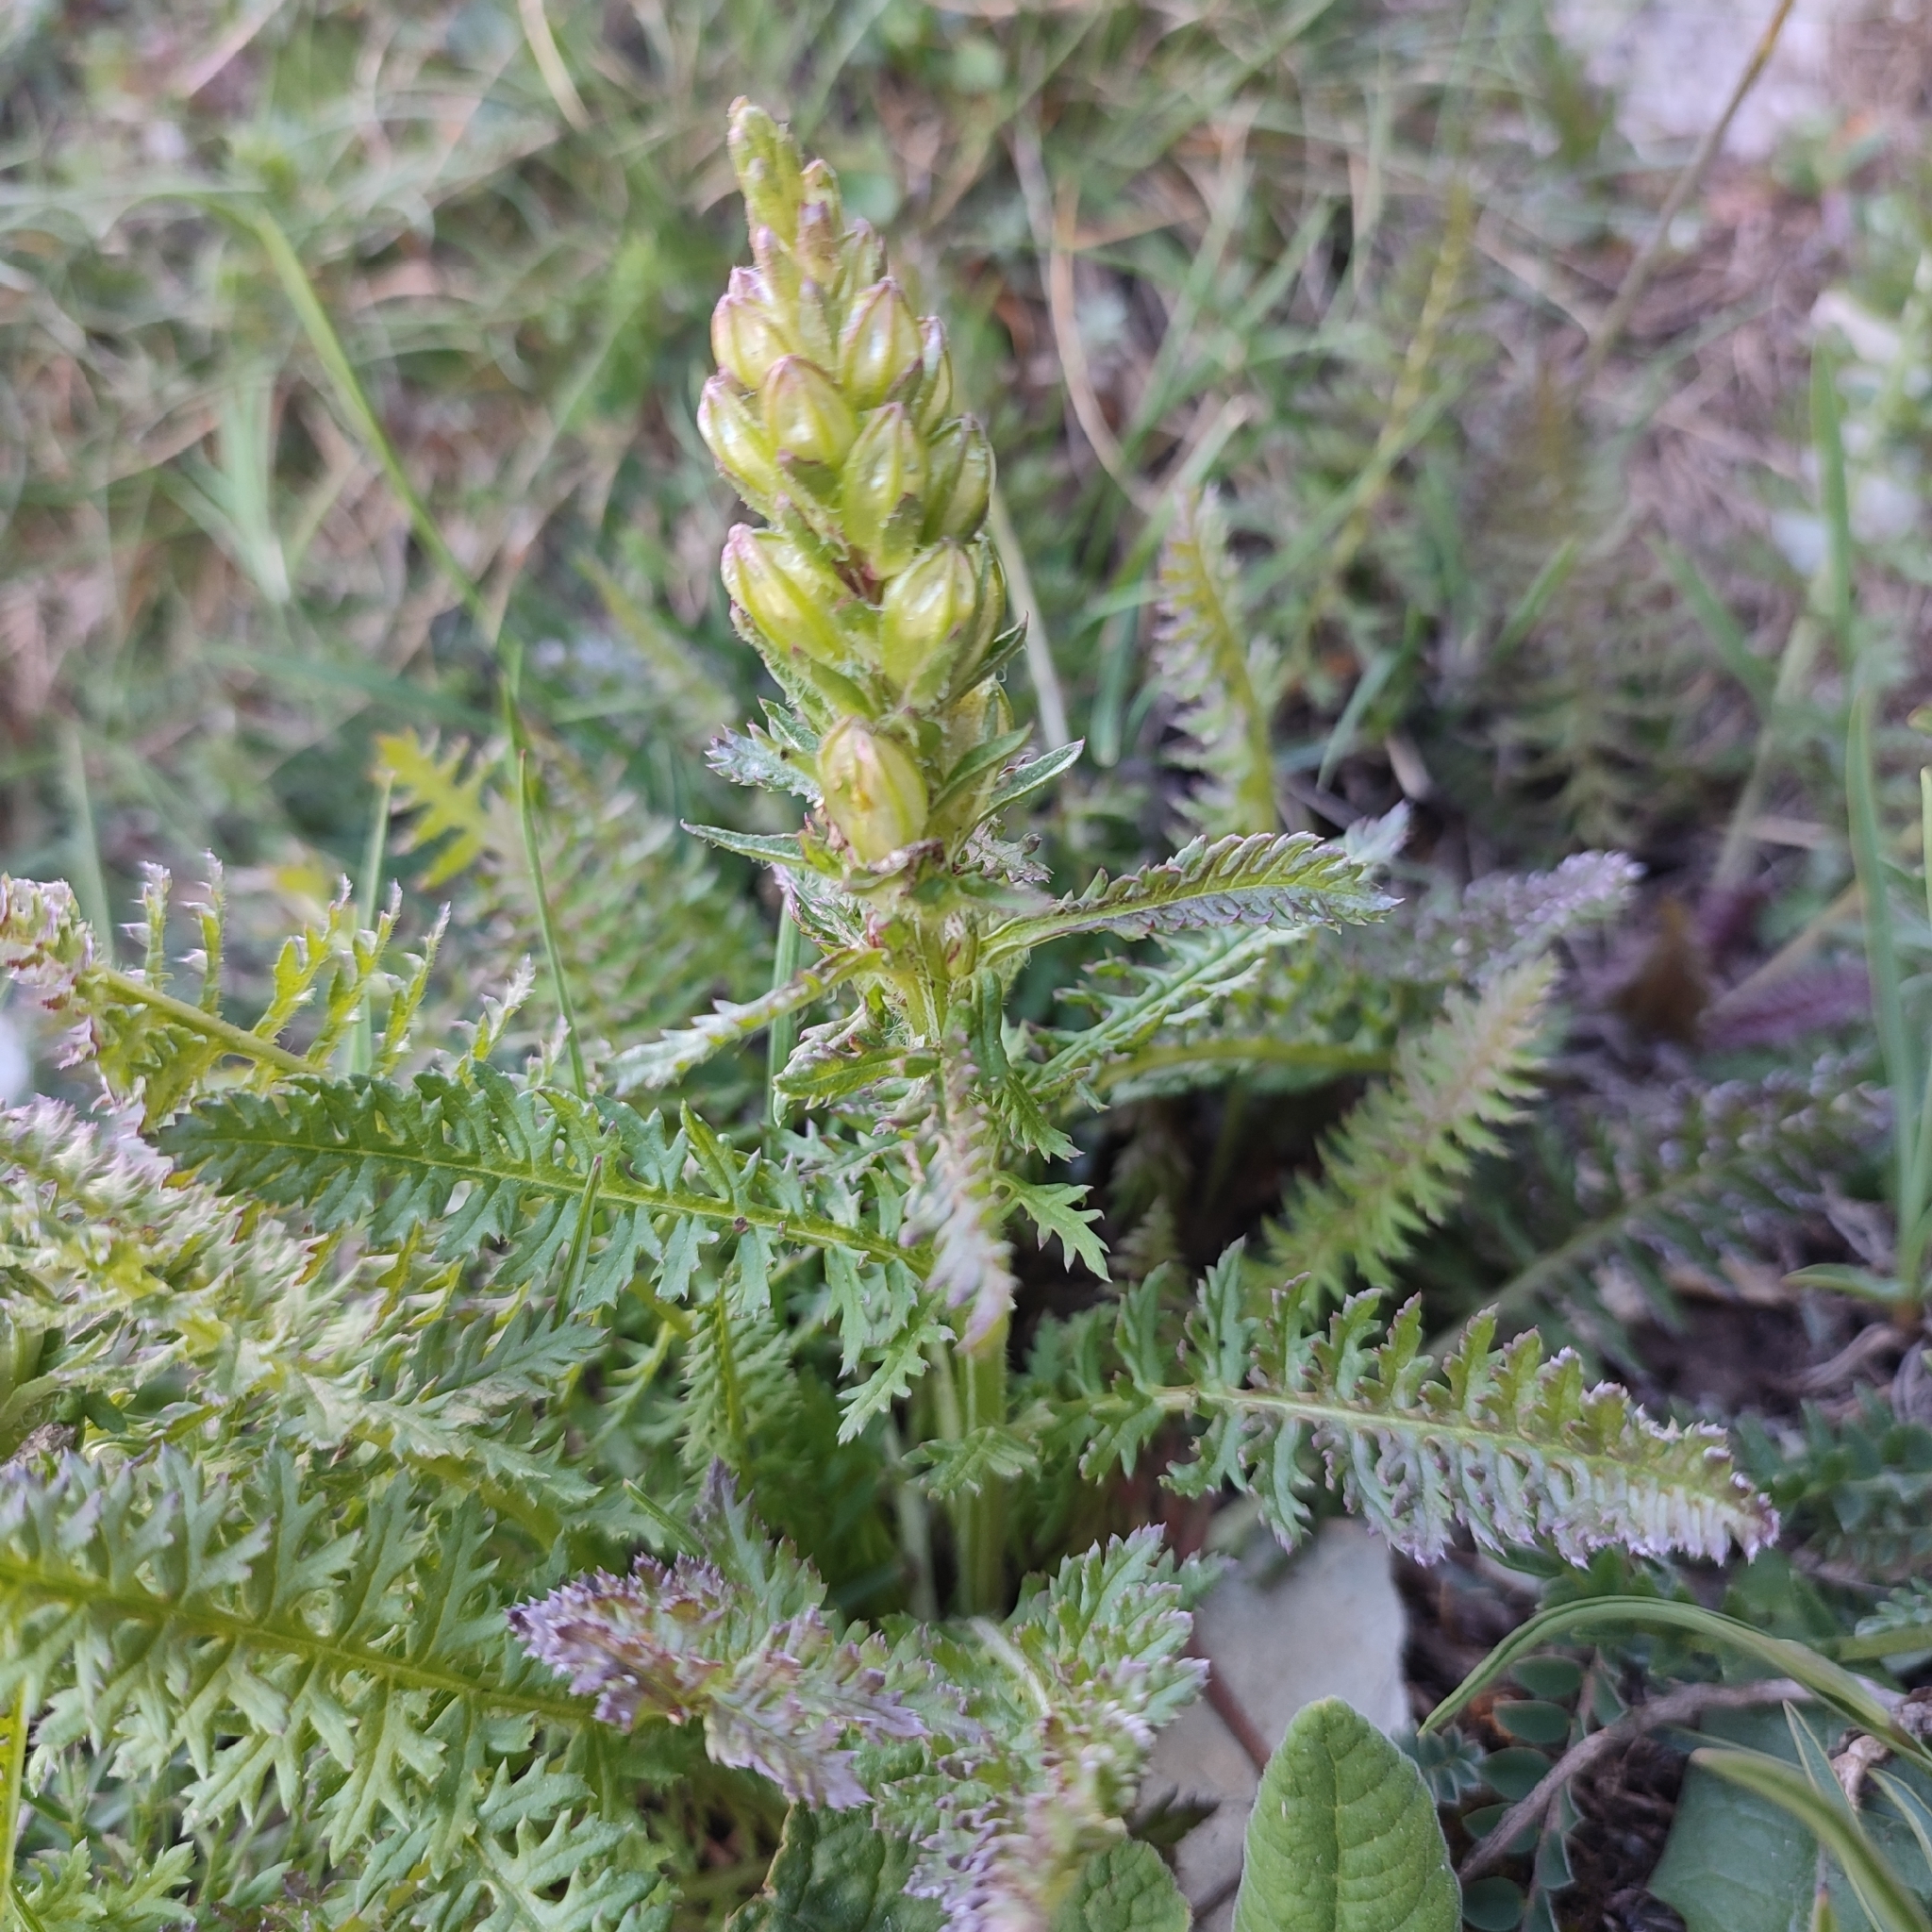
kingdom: Plantae
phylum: Tracheophyta
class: Magnoliopsida
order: Lamiales
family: Orobanchaceae
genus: Pedicularis
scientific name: Pedicularis comosa
